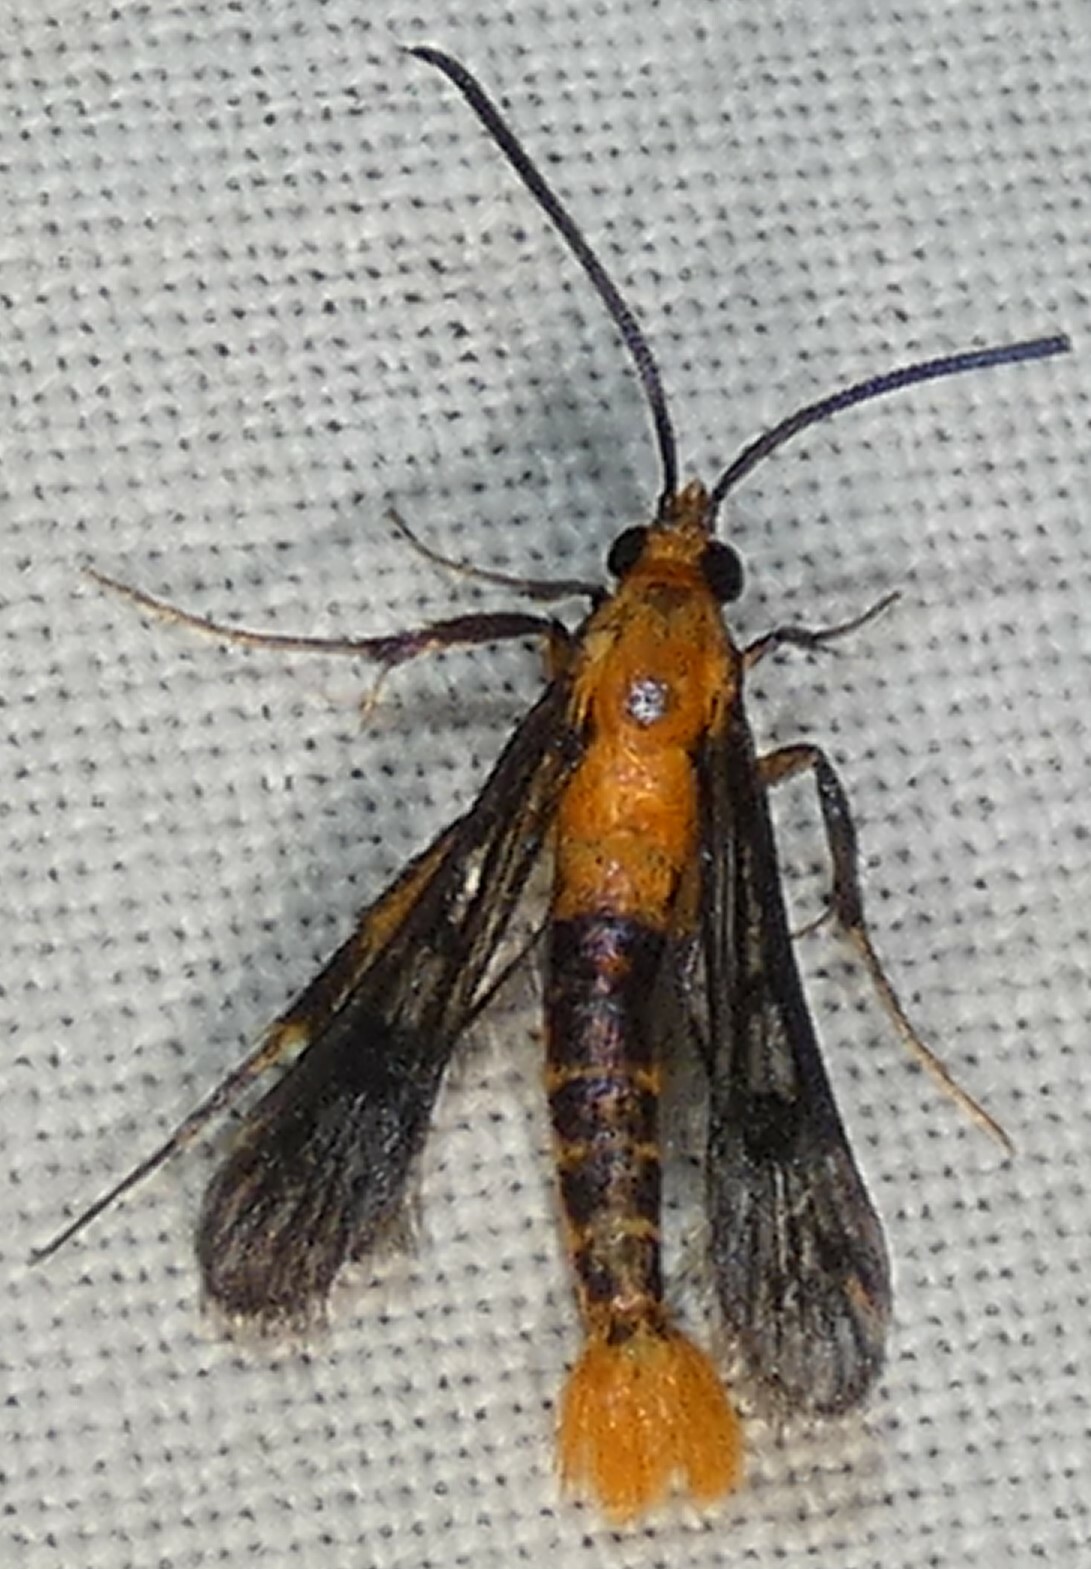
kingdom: Animalia
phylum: Arthropoda
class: Insecta
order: Lepidoptera
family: Sesiidae
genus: Synanthedon
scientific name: Synanthedon acerni
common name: Maple callus borer moth
